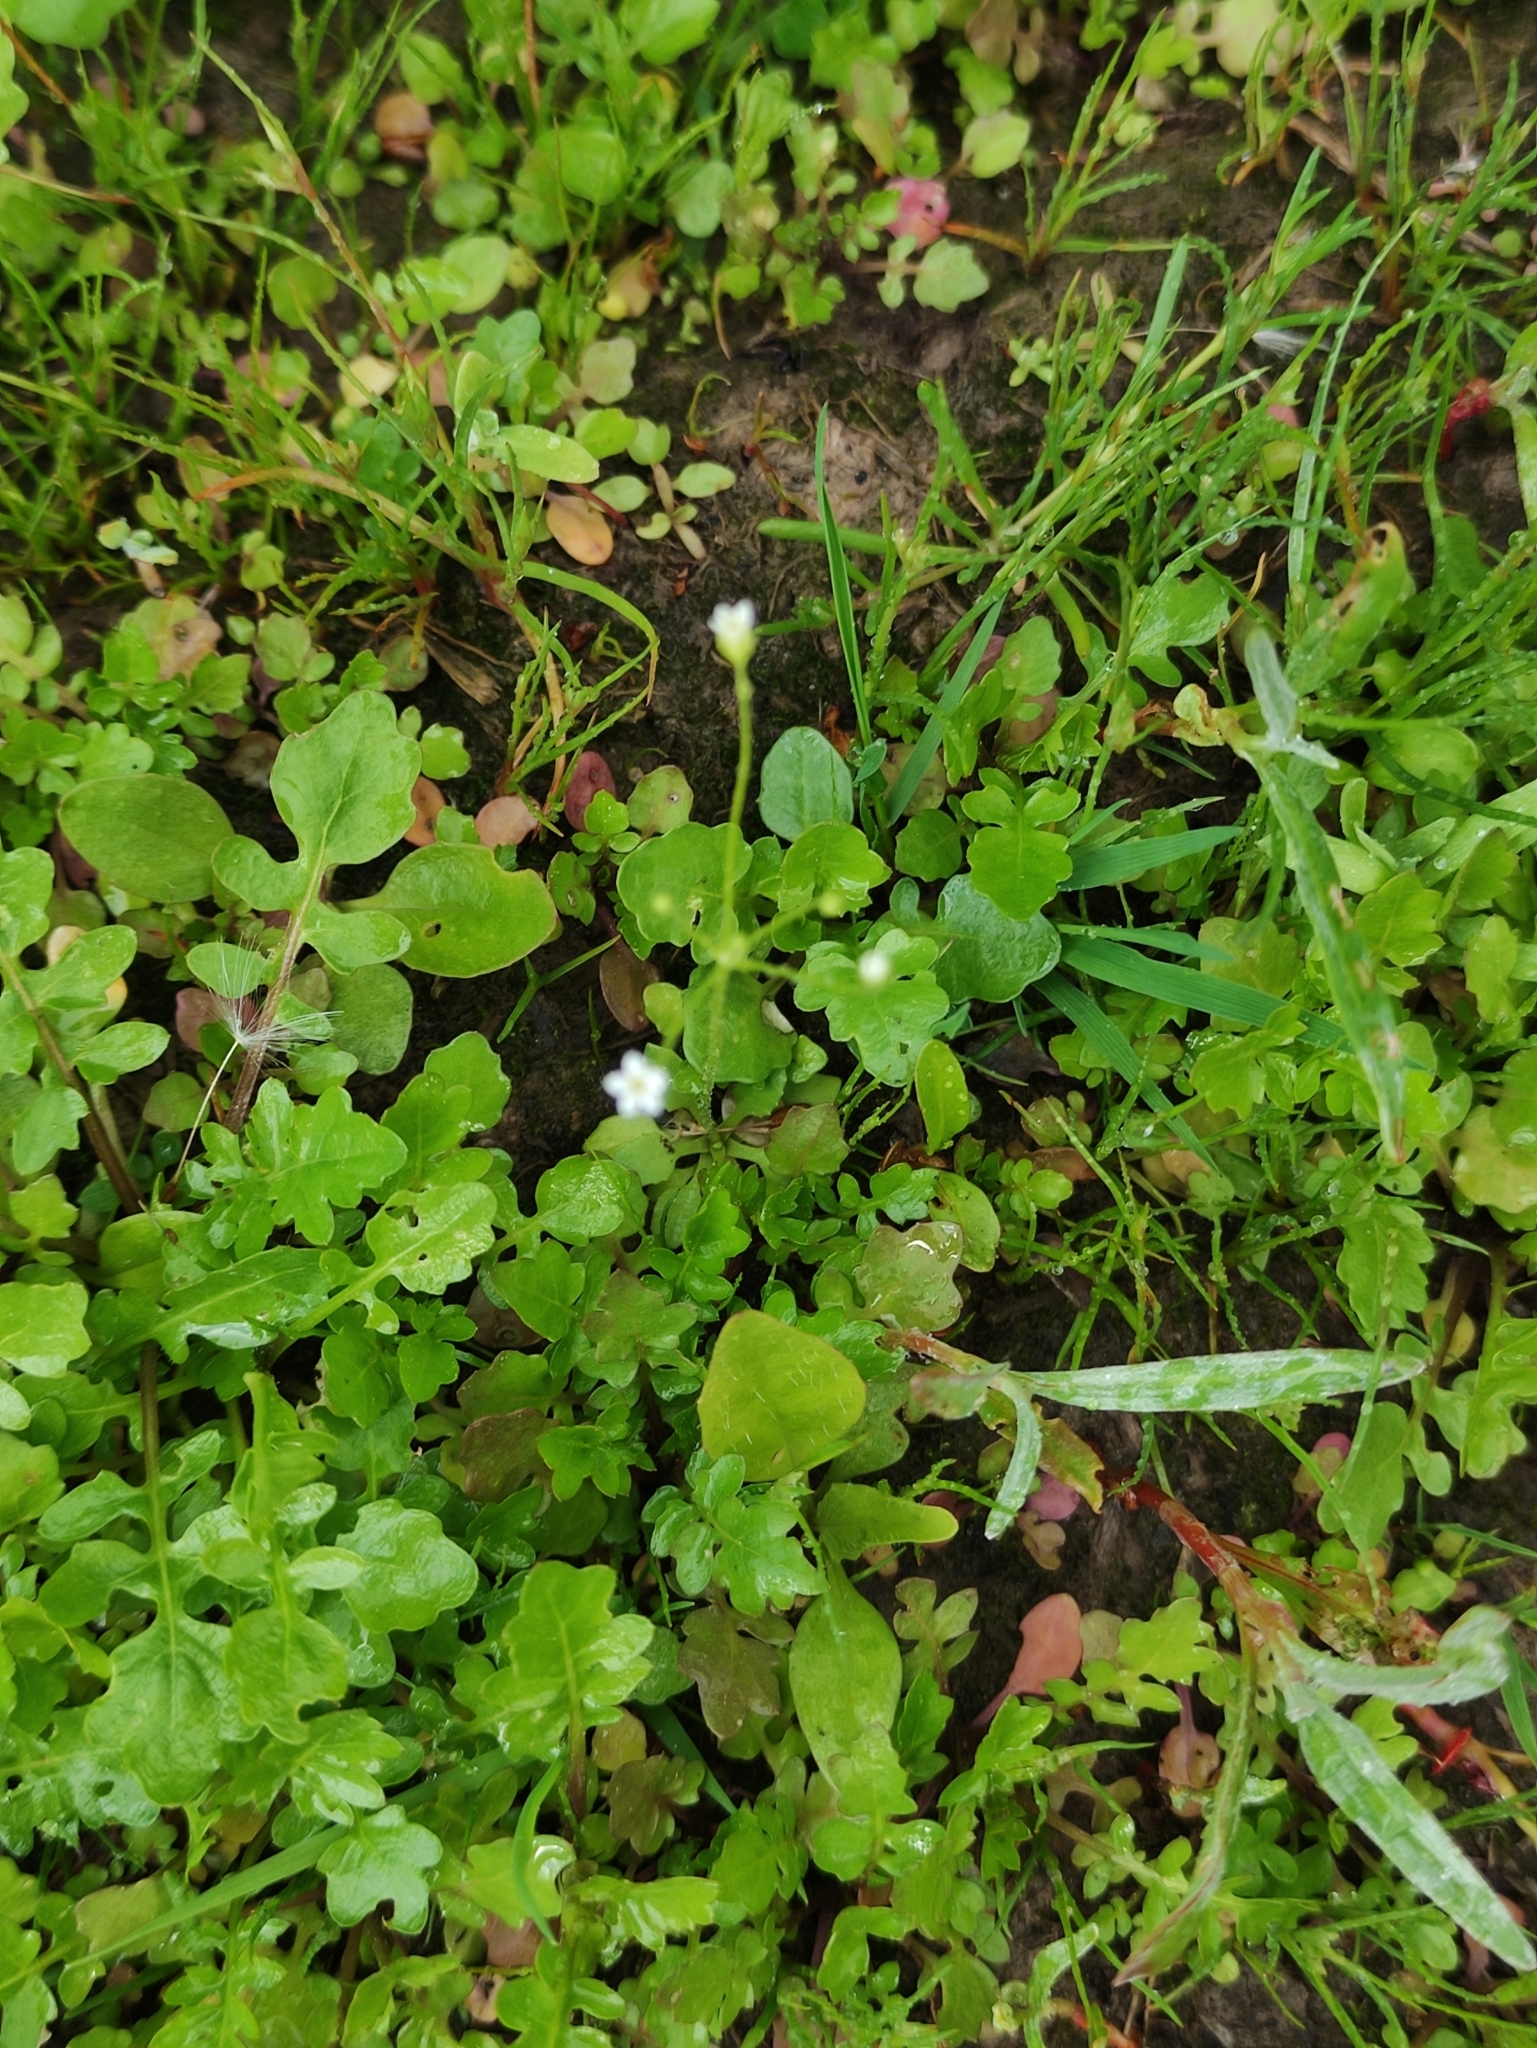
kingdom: Plantae
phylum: Tracheophyta
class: Magnoliopsida
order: Ericales
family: Primulaceae
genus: Androsace
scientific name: Androsace filiformis
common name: Filiform rock jasmine
